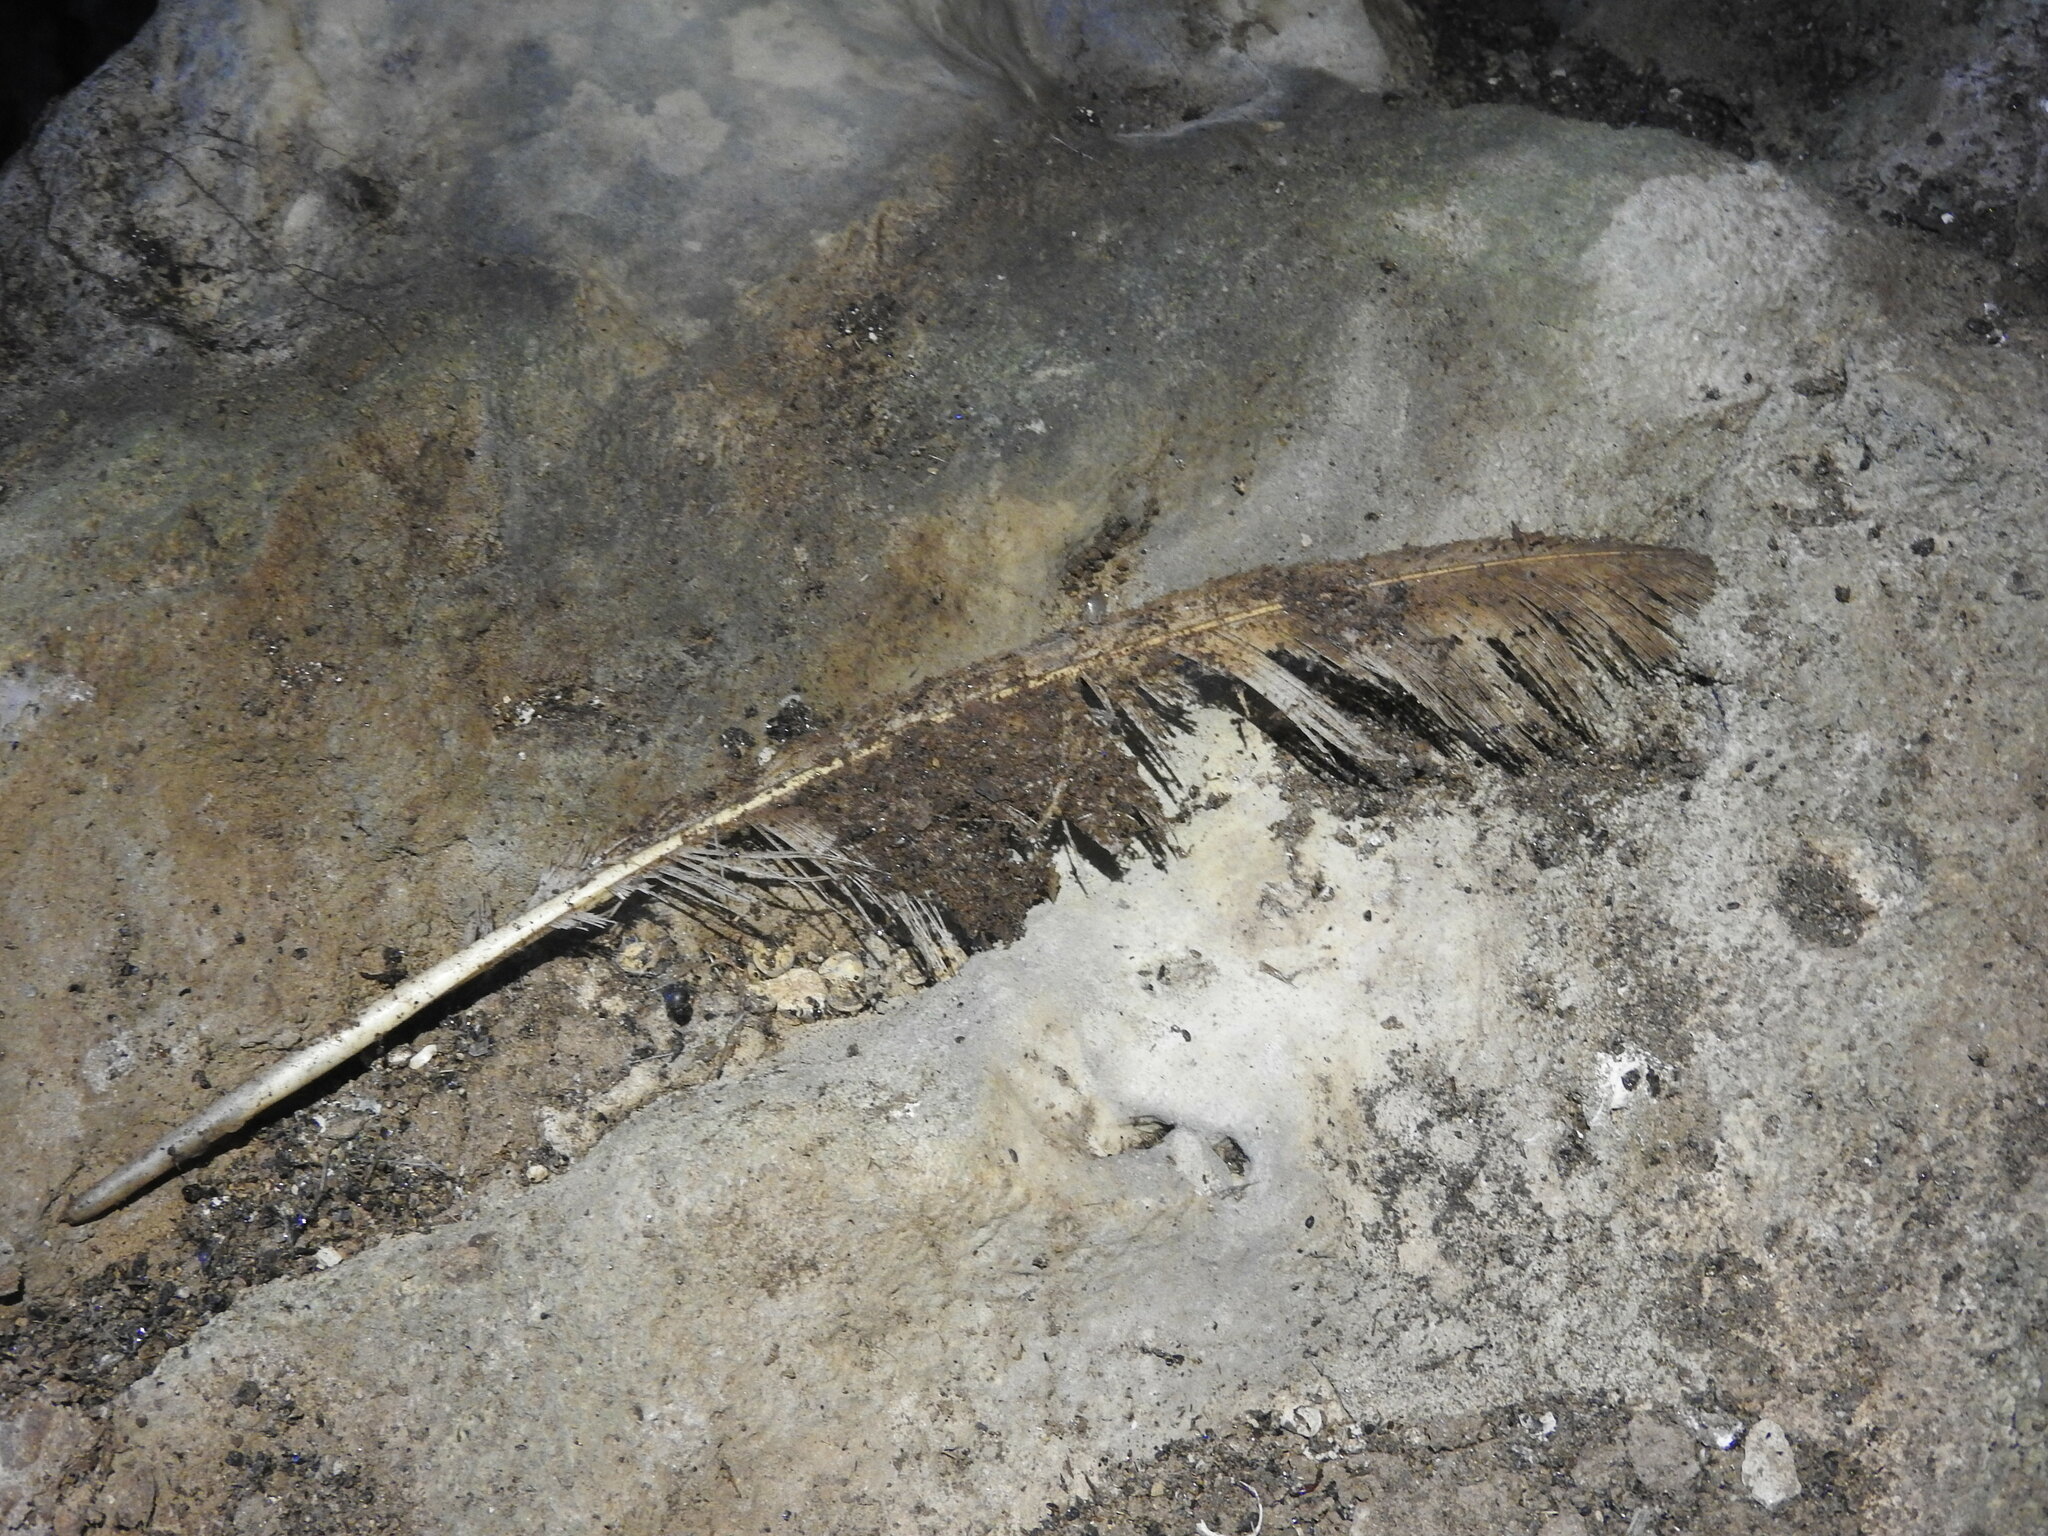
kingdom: Animalia
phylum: Chordata
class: Aves
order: Strigiformes
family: Tytonidae
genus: Tyto
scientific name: Tyto alba
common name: Barn owl
